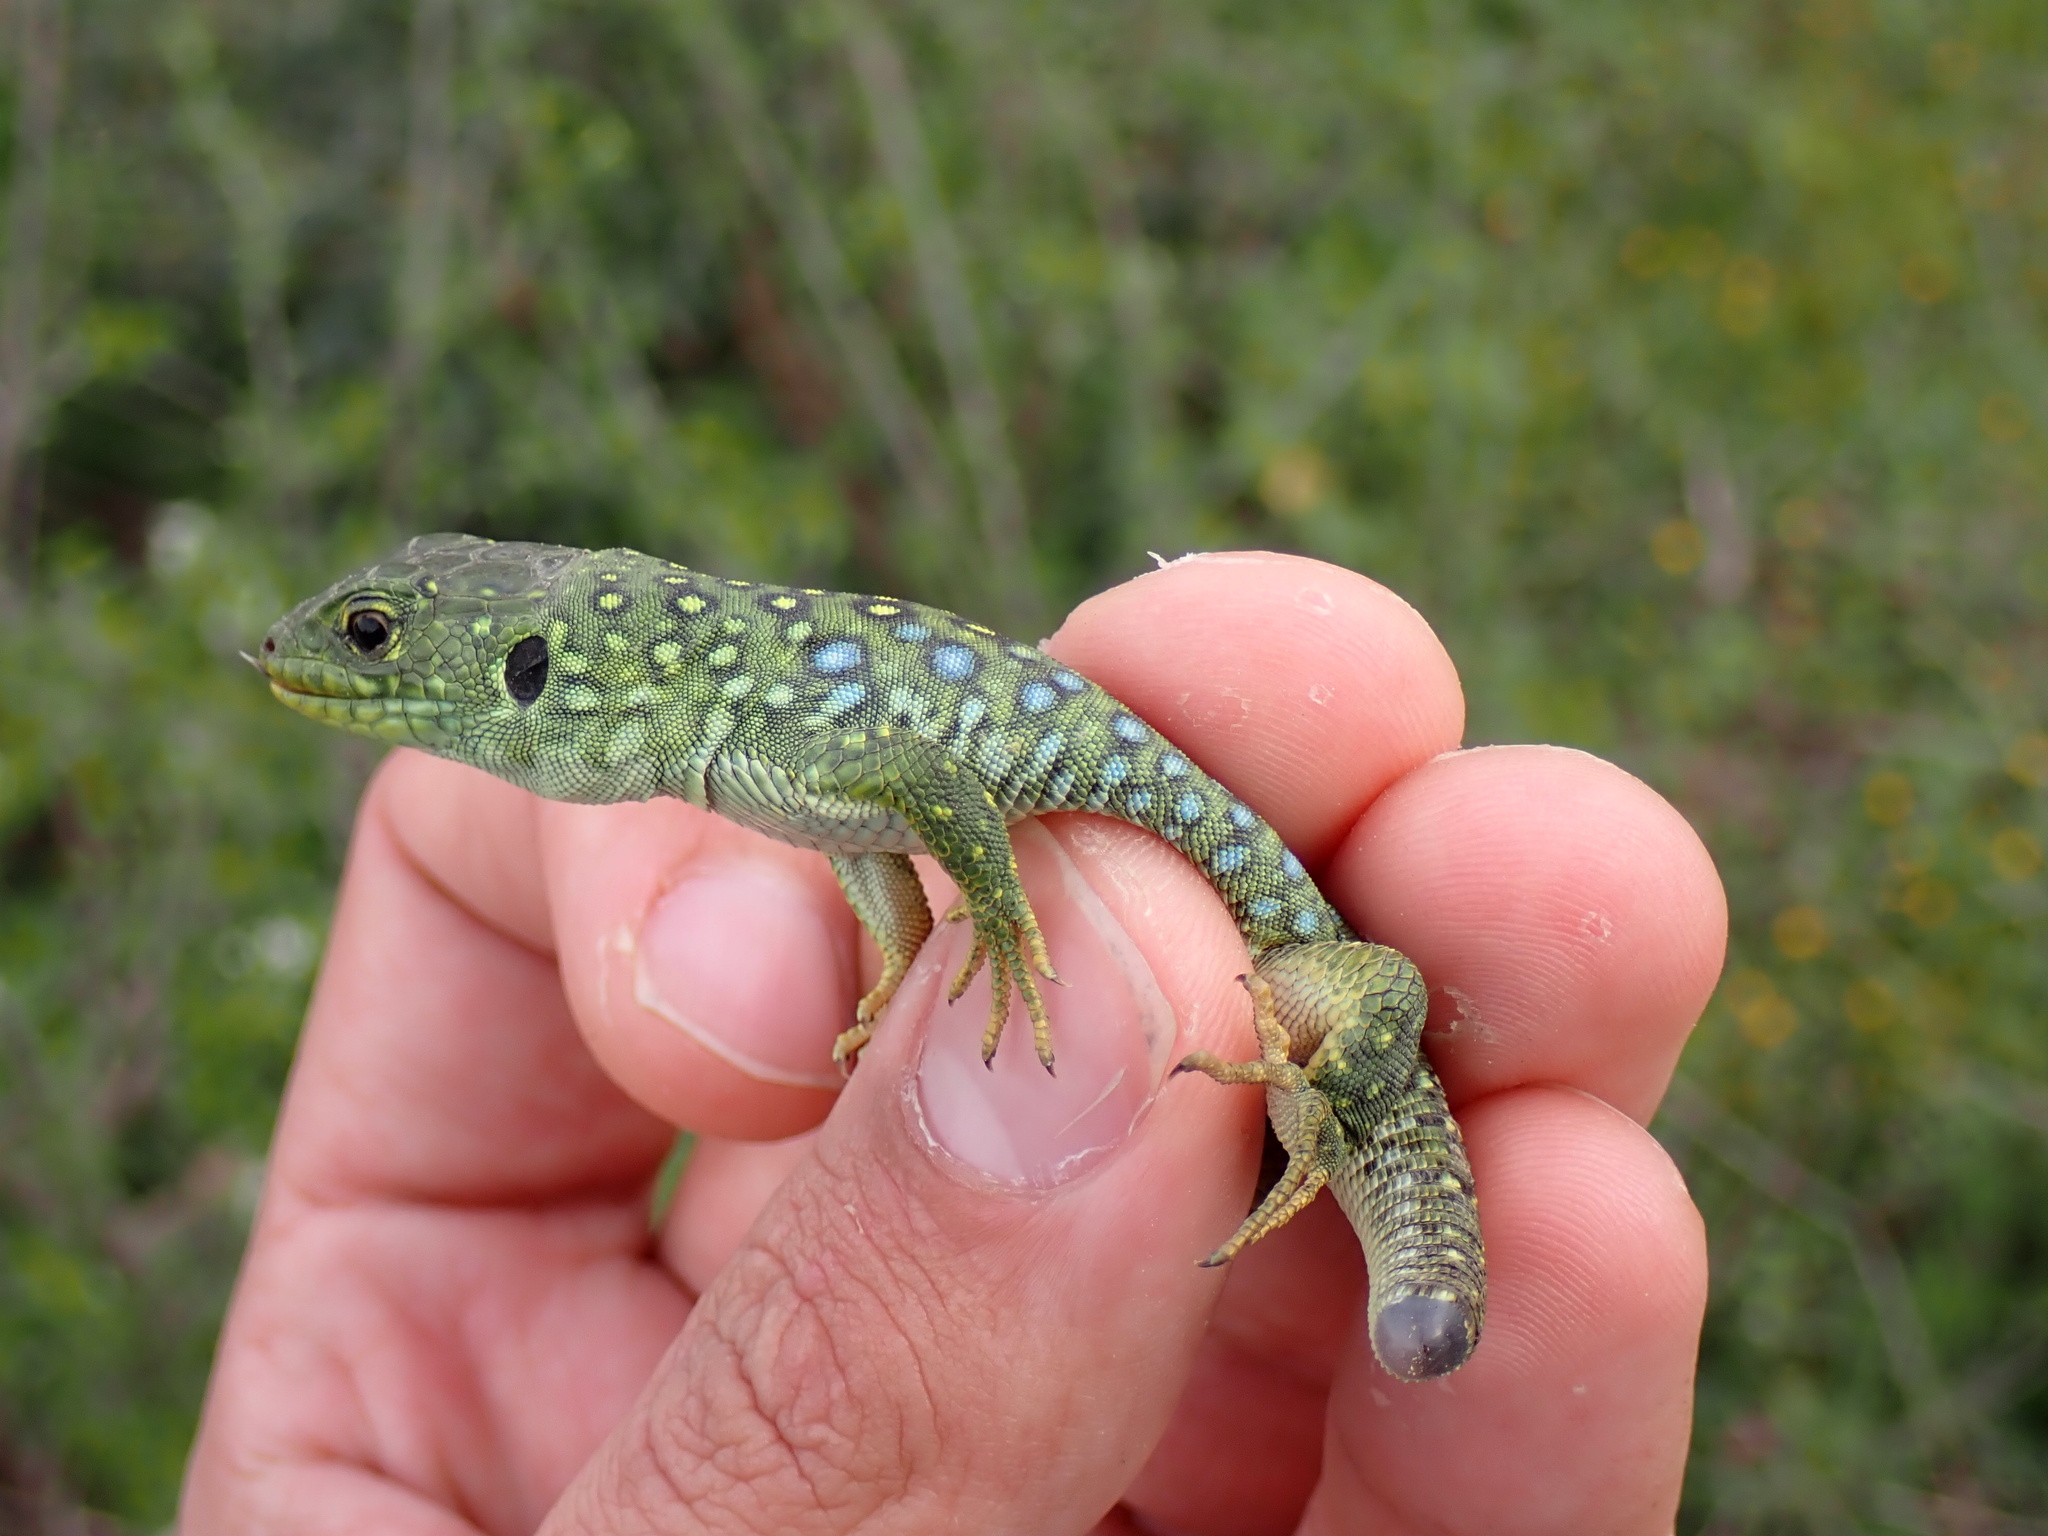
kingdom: Animalia
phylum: Chordata
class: Squamata
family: Lacertidae
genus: Timon
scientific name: Timon lepidus
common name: Ocellated lizard
